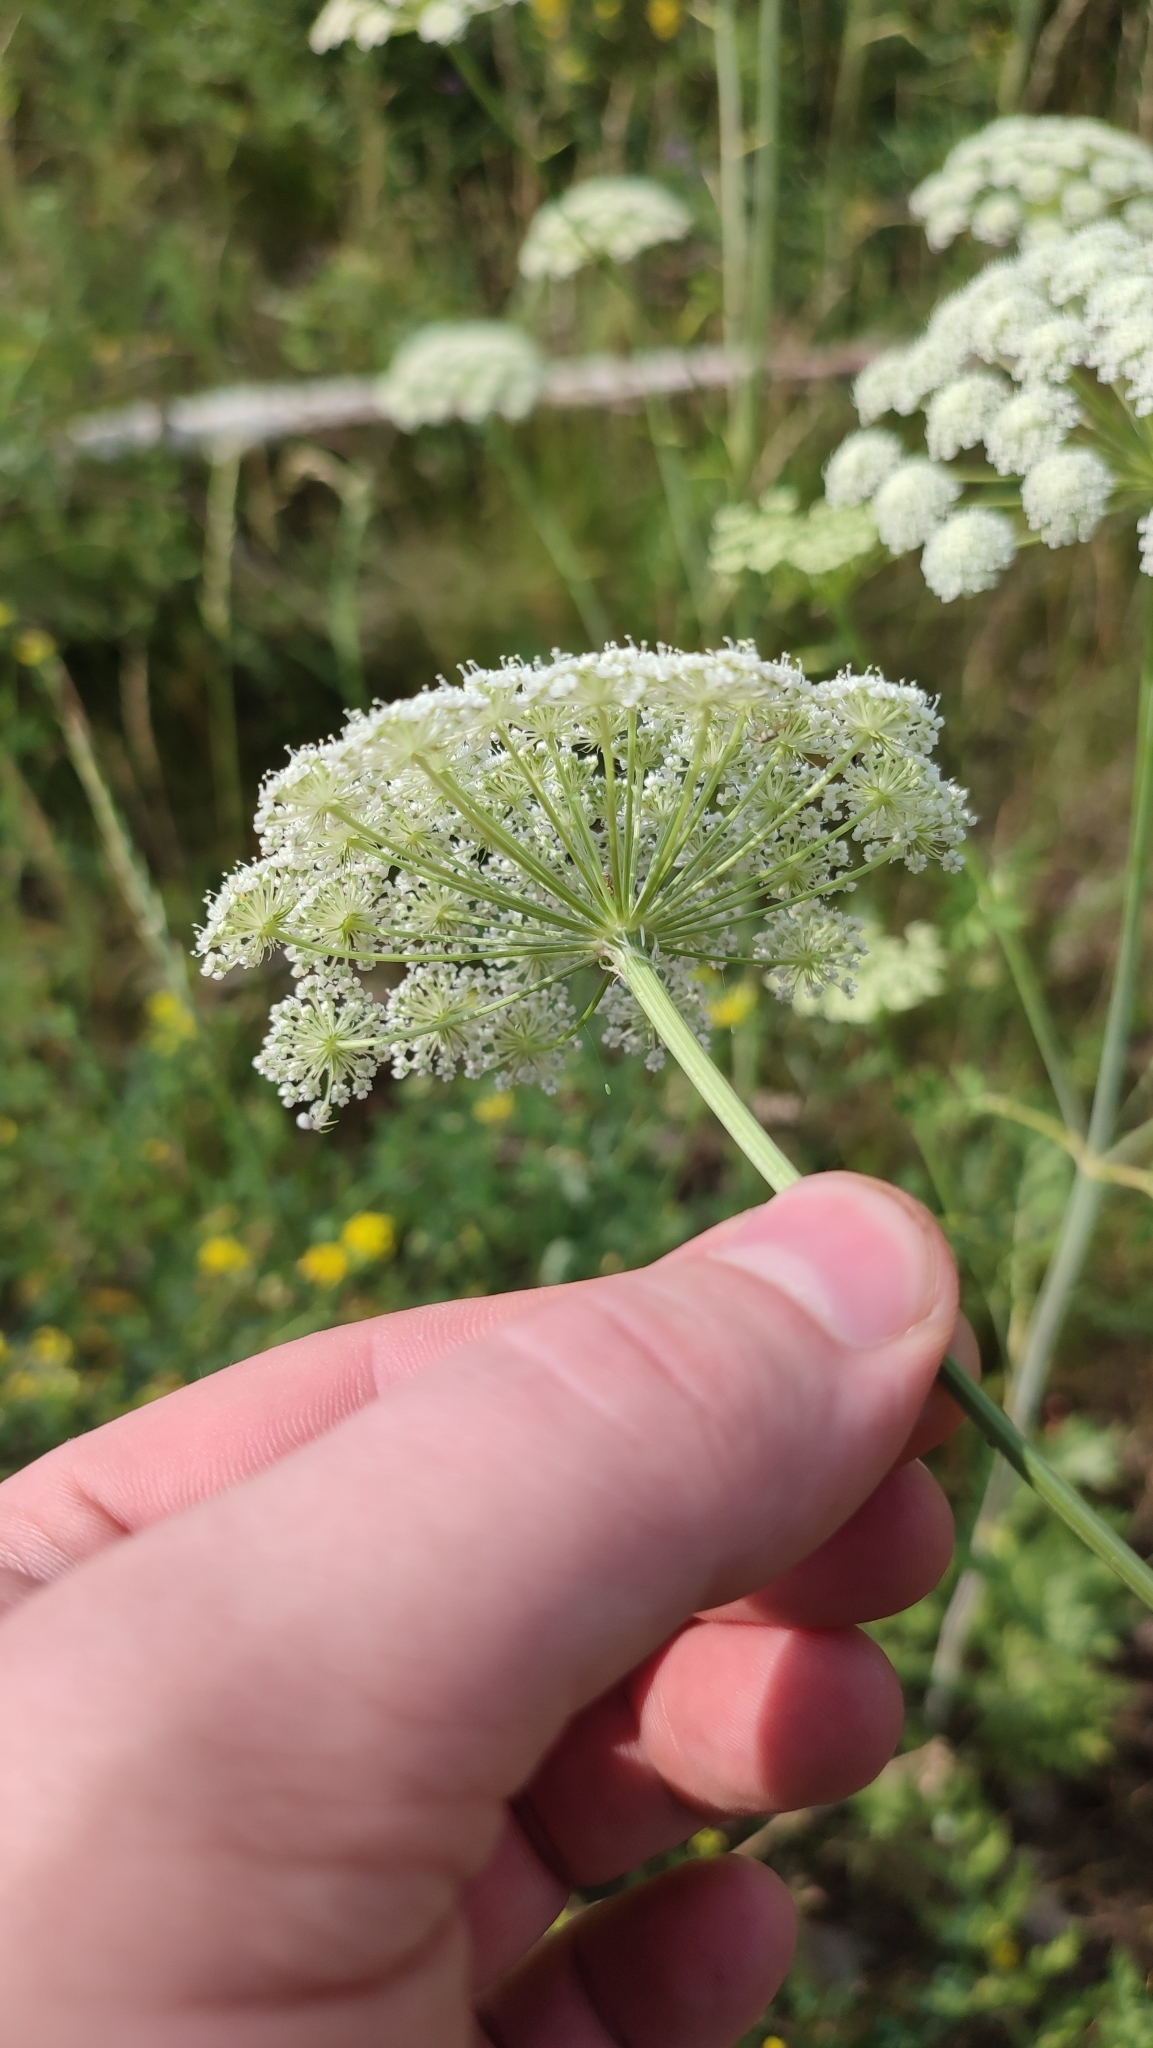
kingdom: Plantae
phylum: Tracheophyta
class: Magnoliopsida
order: Apiales
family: Apiaceae
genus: Seseli
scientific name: Seseli libanotis
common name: Mooncarrot
